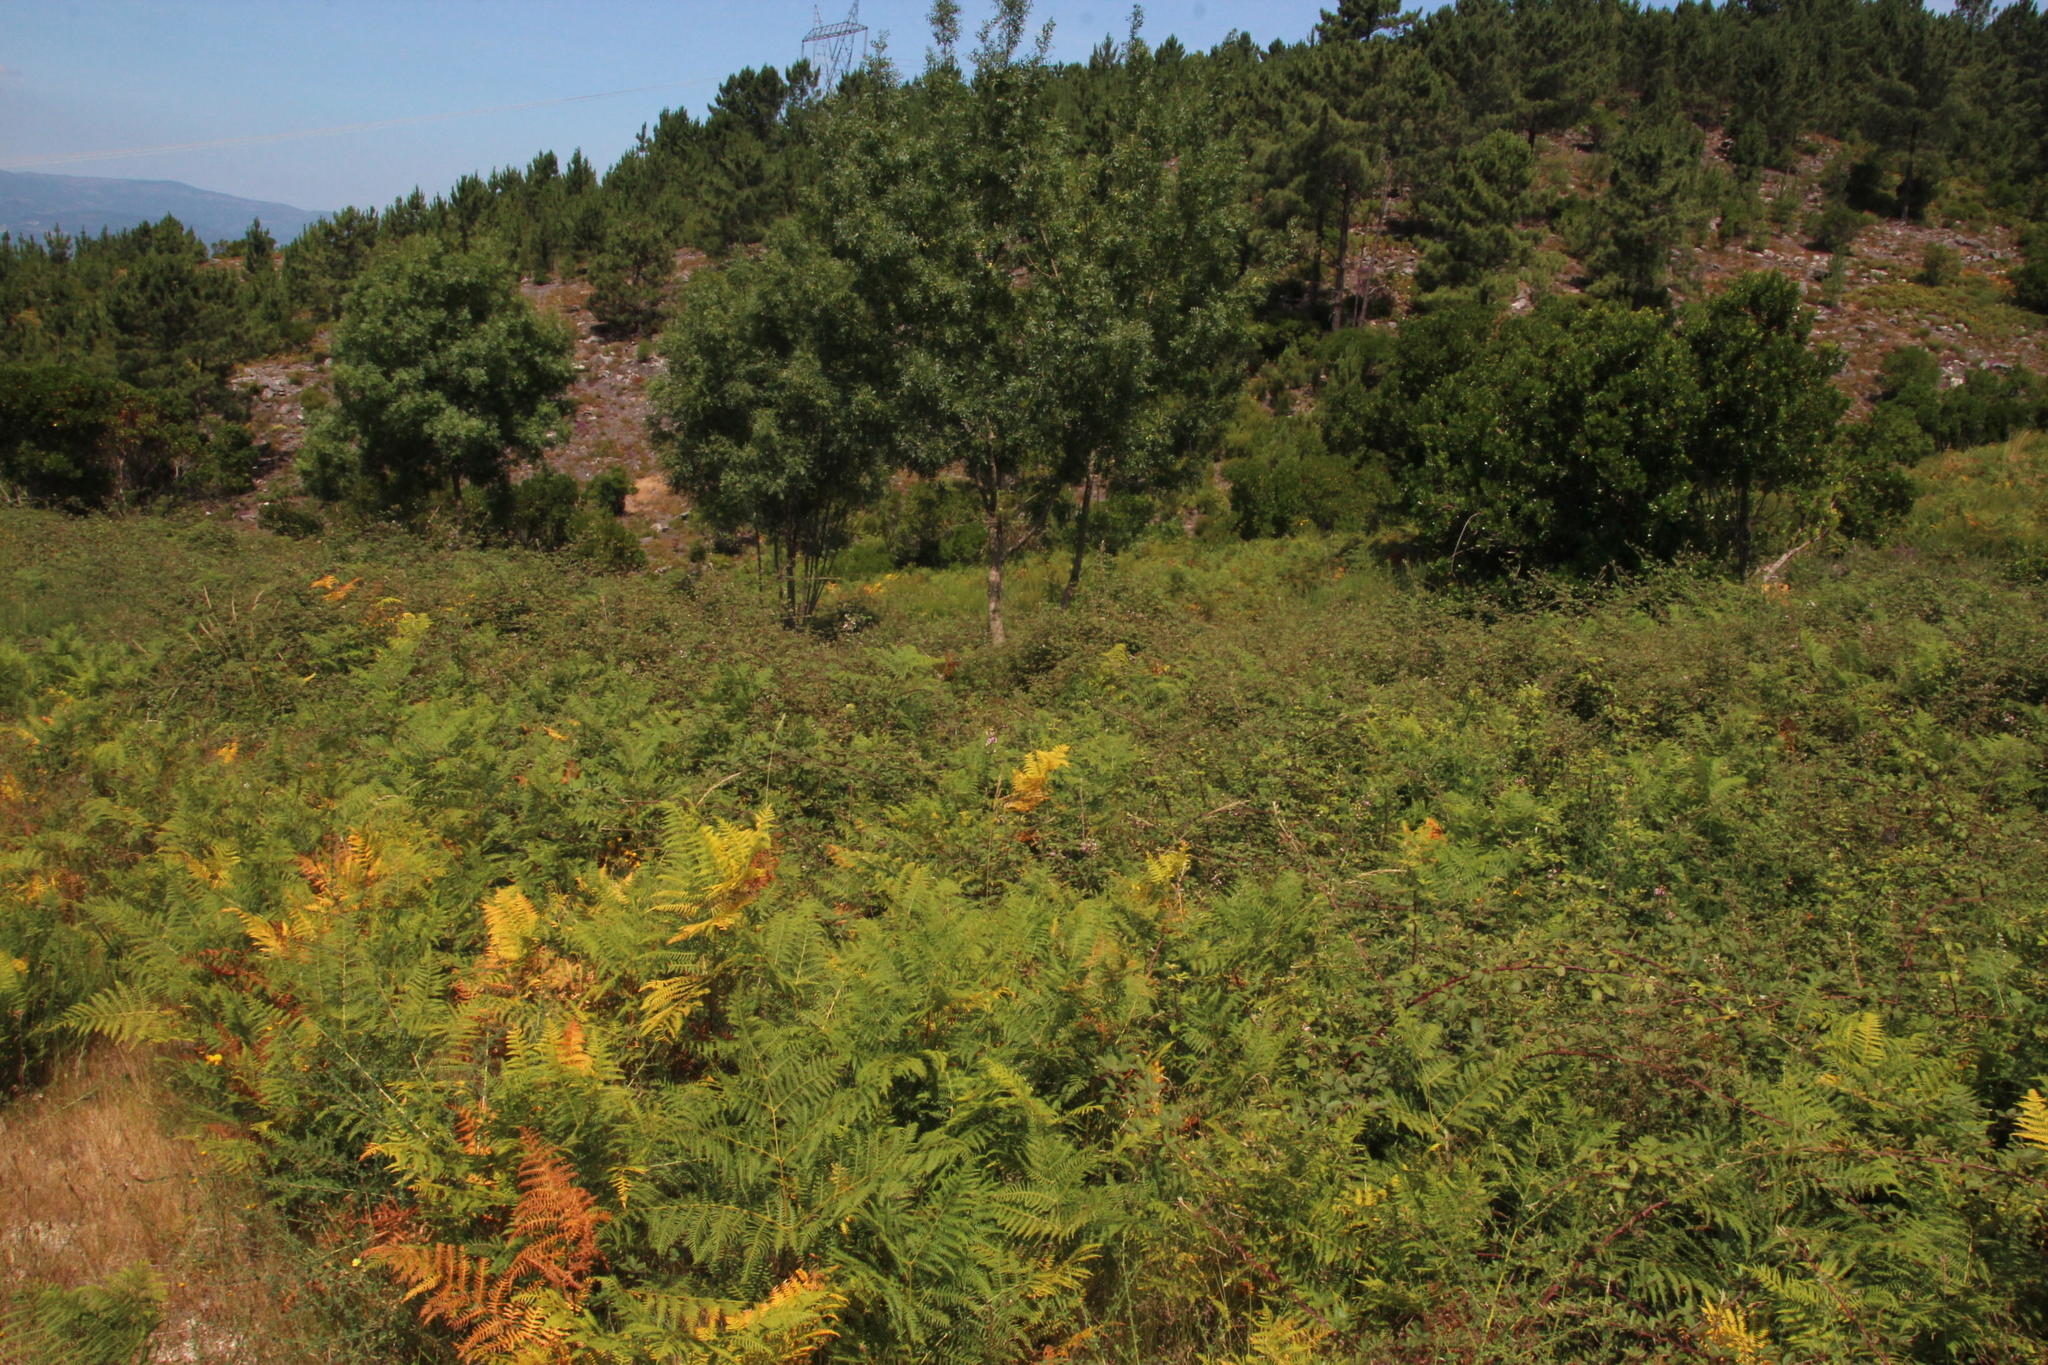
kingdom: Plantae
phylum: Tracheophyta
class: Polypodiopsida
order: Polypodiales
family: Dennstaedtiaceae
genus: Pteridium
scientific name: Pteridium aquilinum
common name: Bracken
